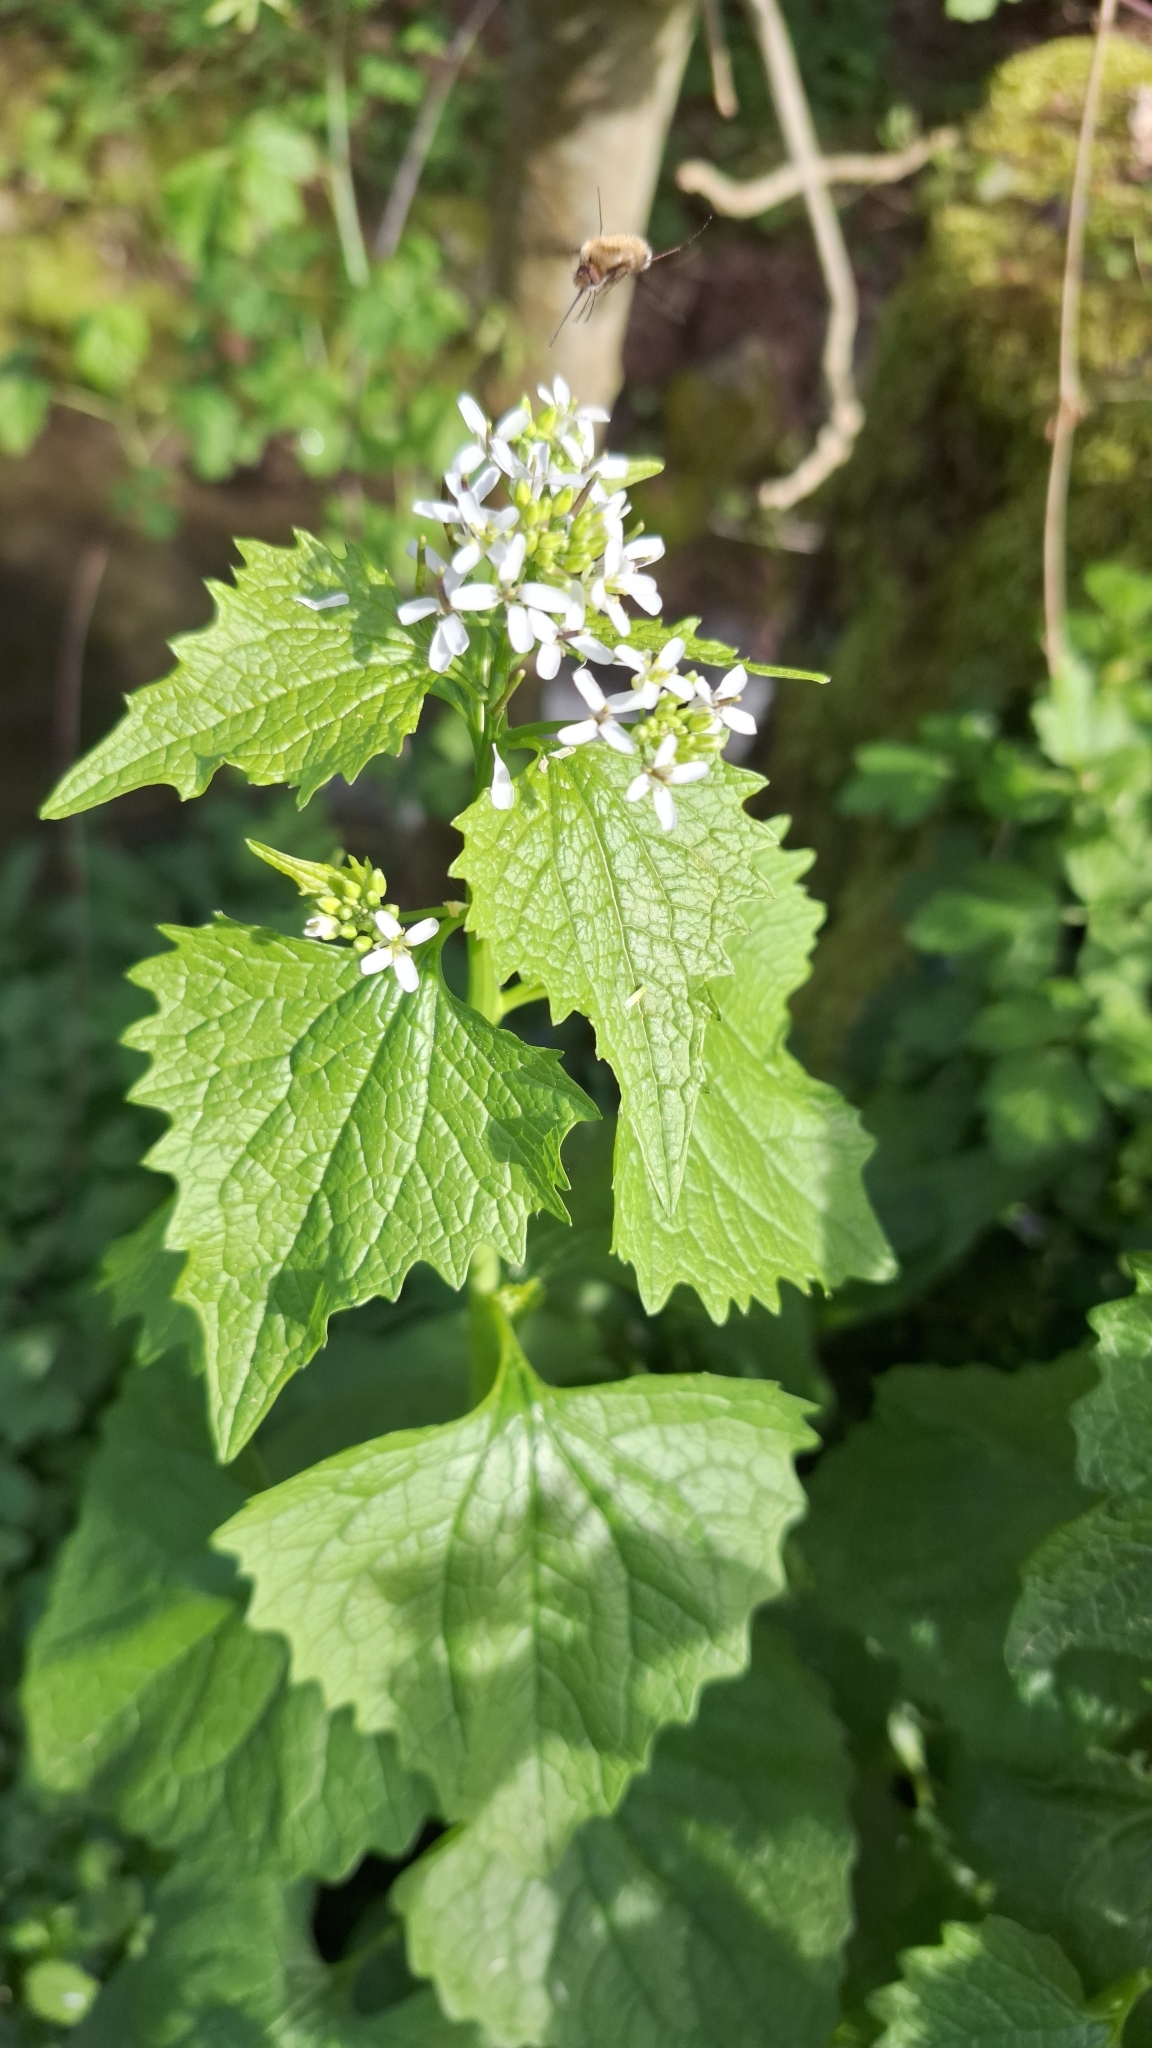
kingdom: Plantae
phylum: Tracheophyta
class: Magnoliopsida
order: Brassicales
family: Brassicaceae
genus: Alliaria
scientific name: Alliaria petiolata
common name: Garlic mustard
